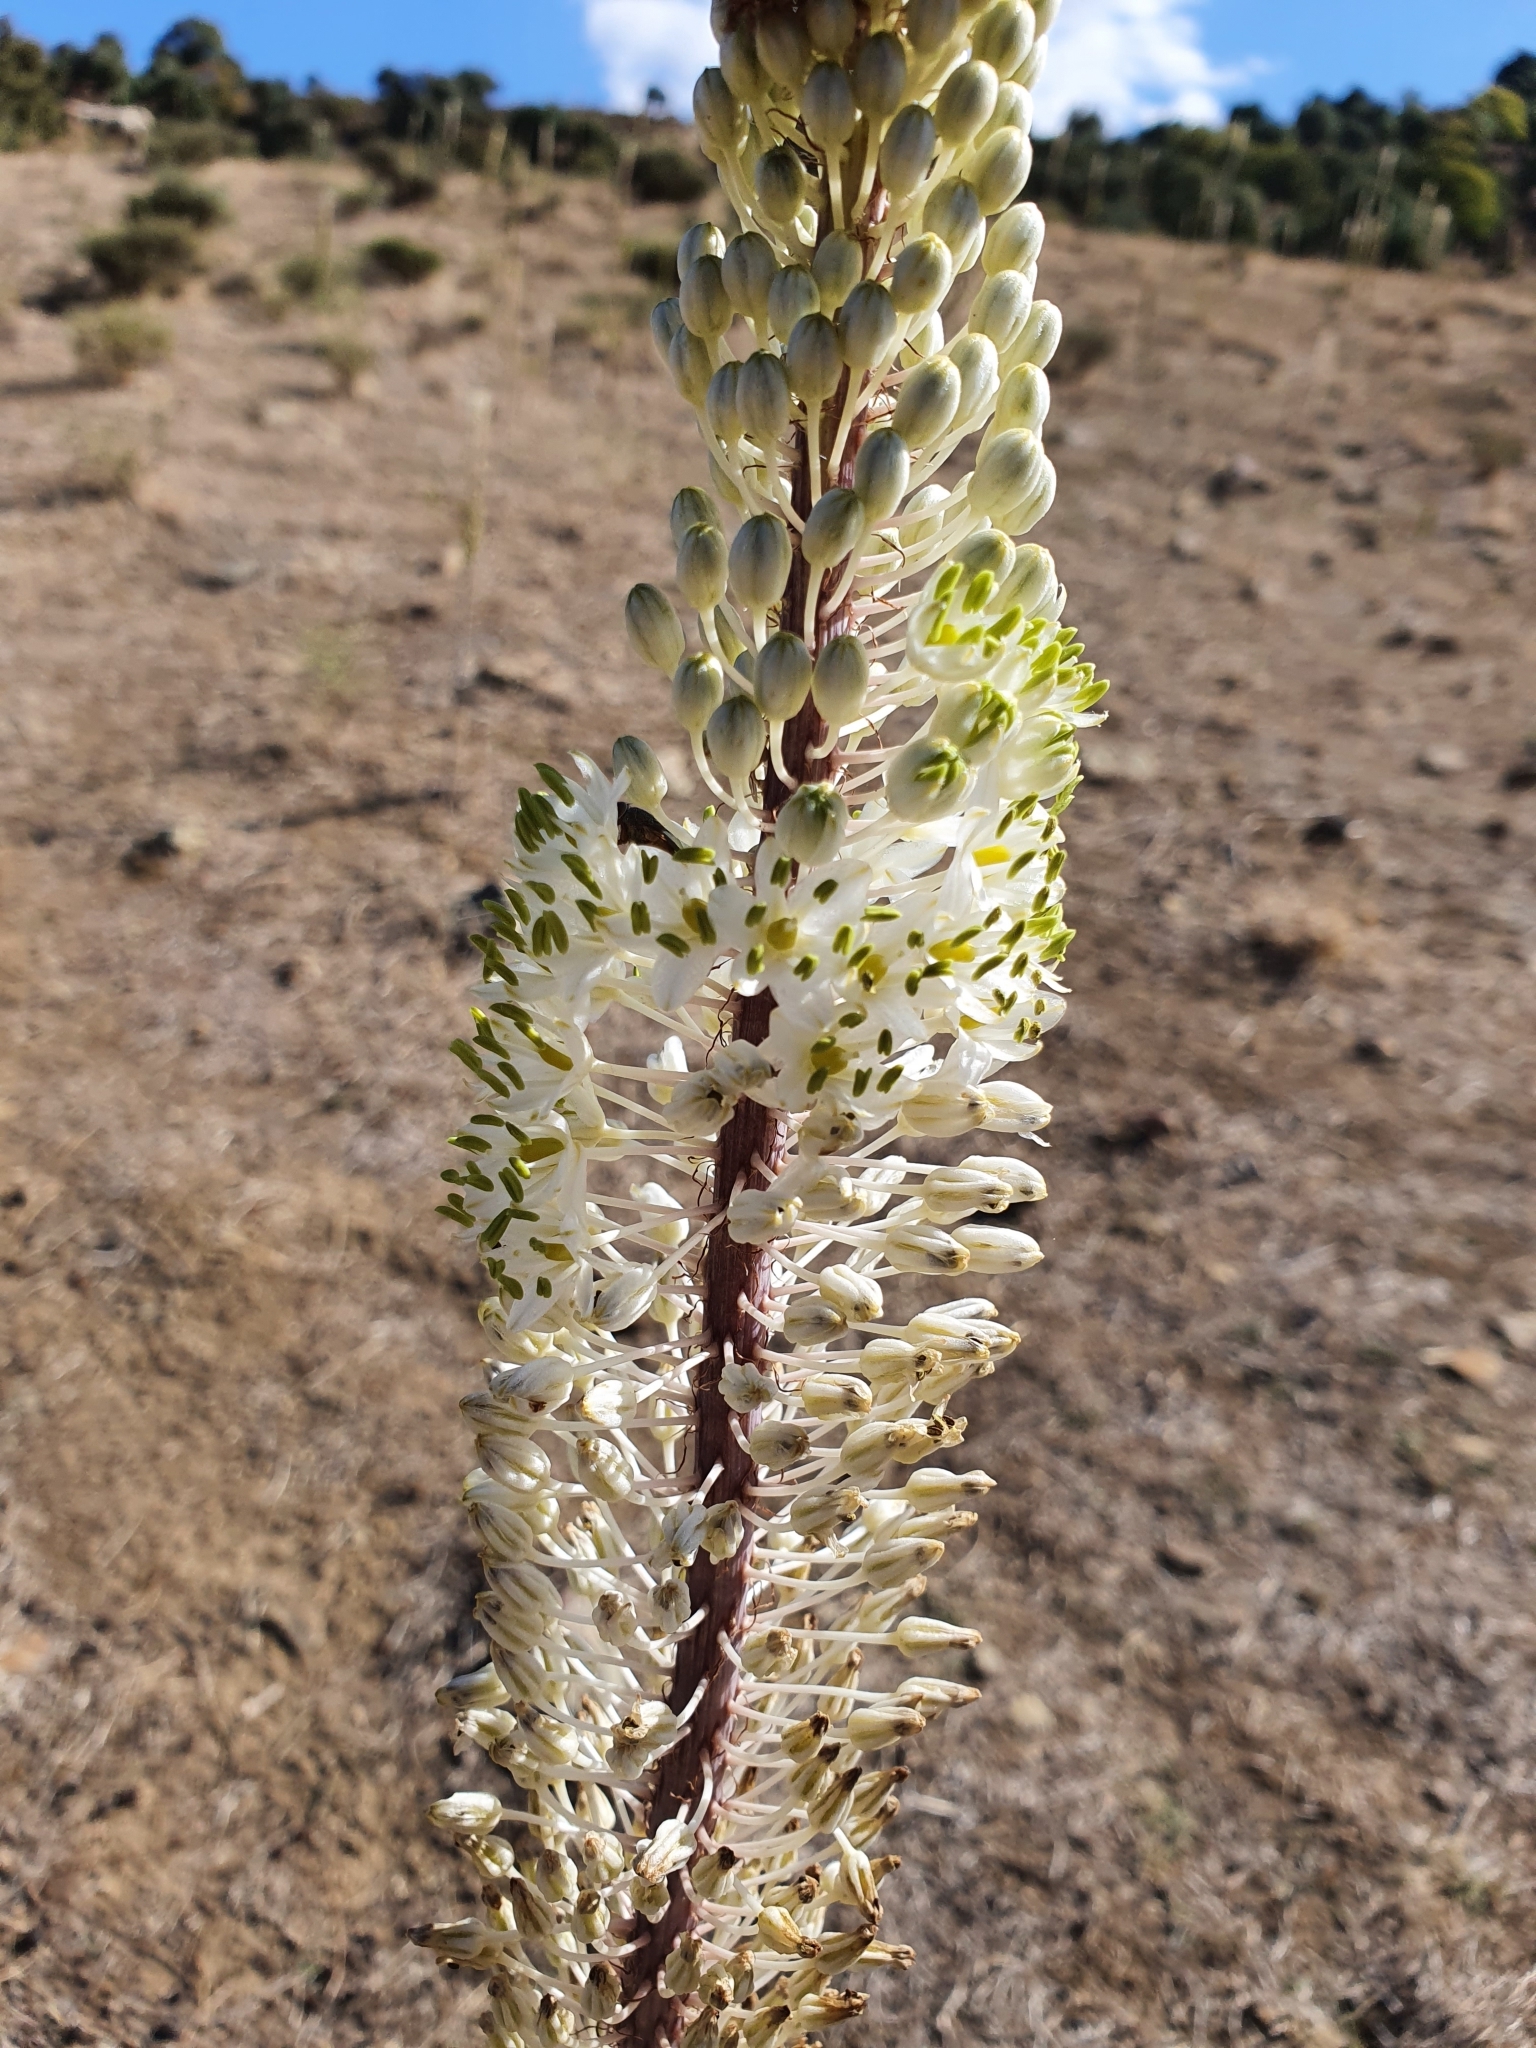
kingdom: Plantae
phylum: Tracheophyta
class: Liliopsida
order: Asparagales
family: Asparagaceae
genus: Drimia
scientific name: Drimia numidica
